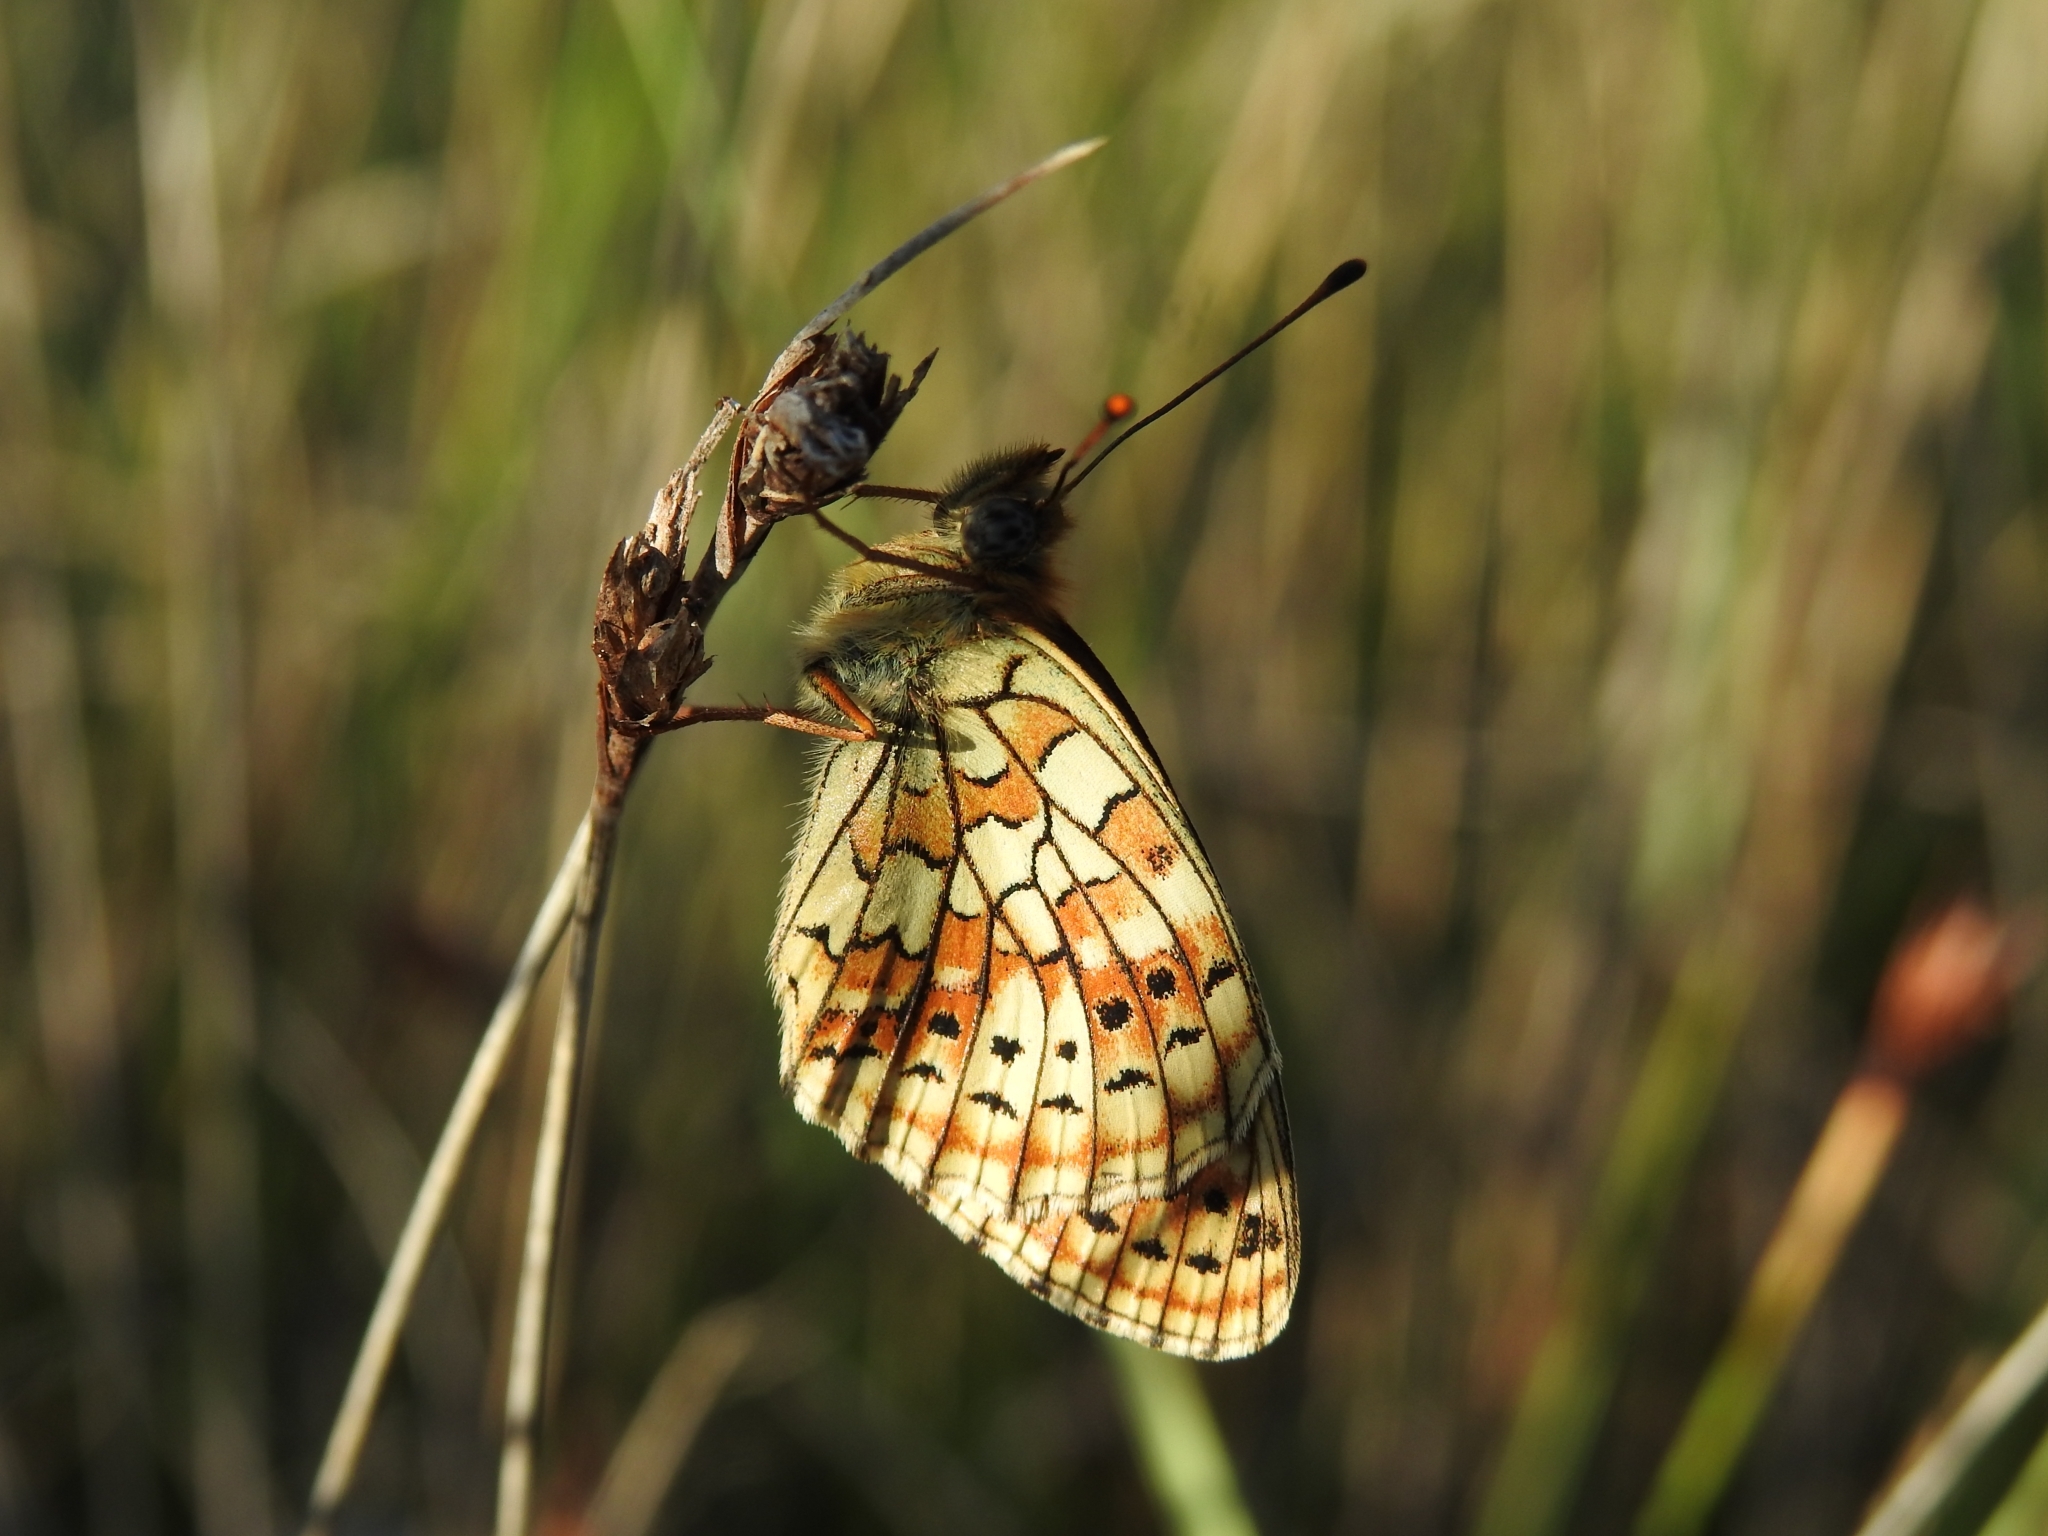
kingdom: Animalia
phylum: Arthropoda
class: Insecta
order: Lepidoptera
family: Nymphalidae
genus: Brenthis
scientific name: Brenthis hecate
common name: Twin-spot fritillary
